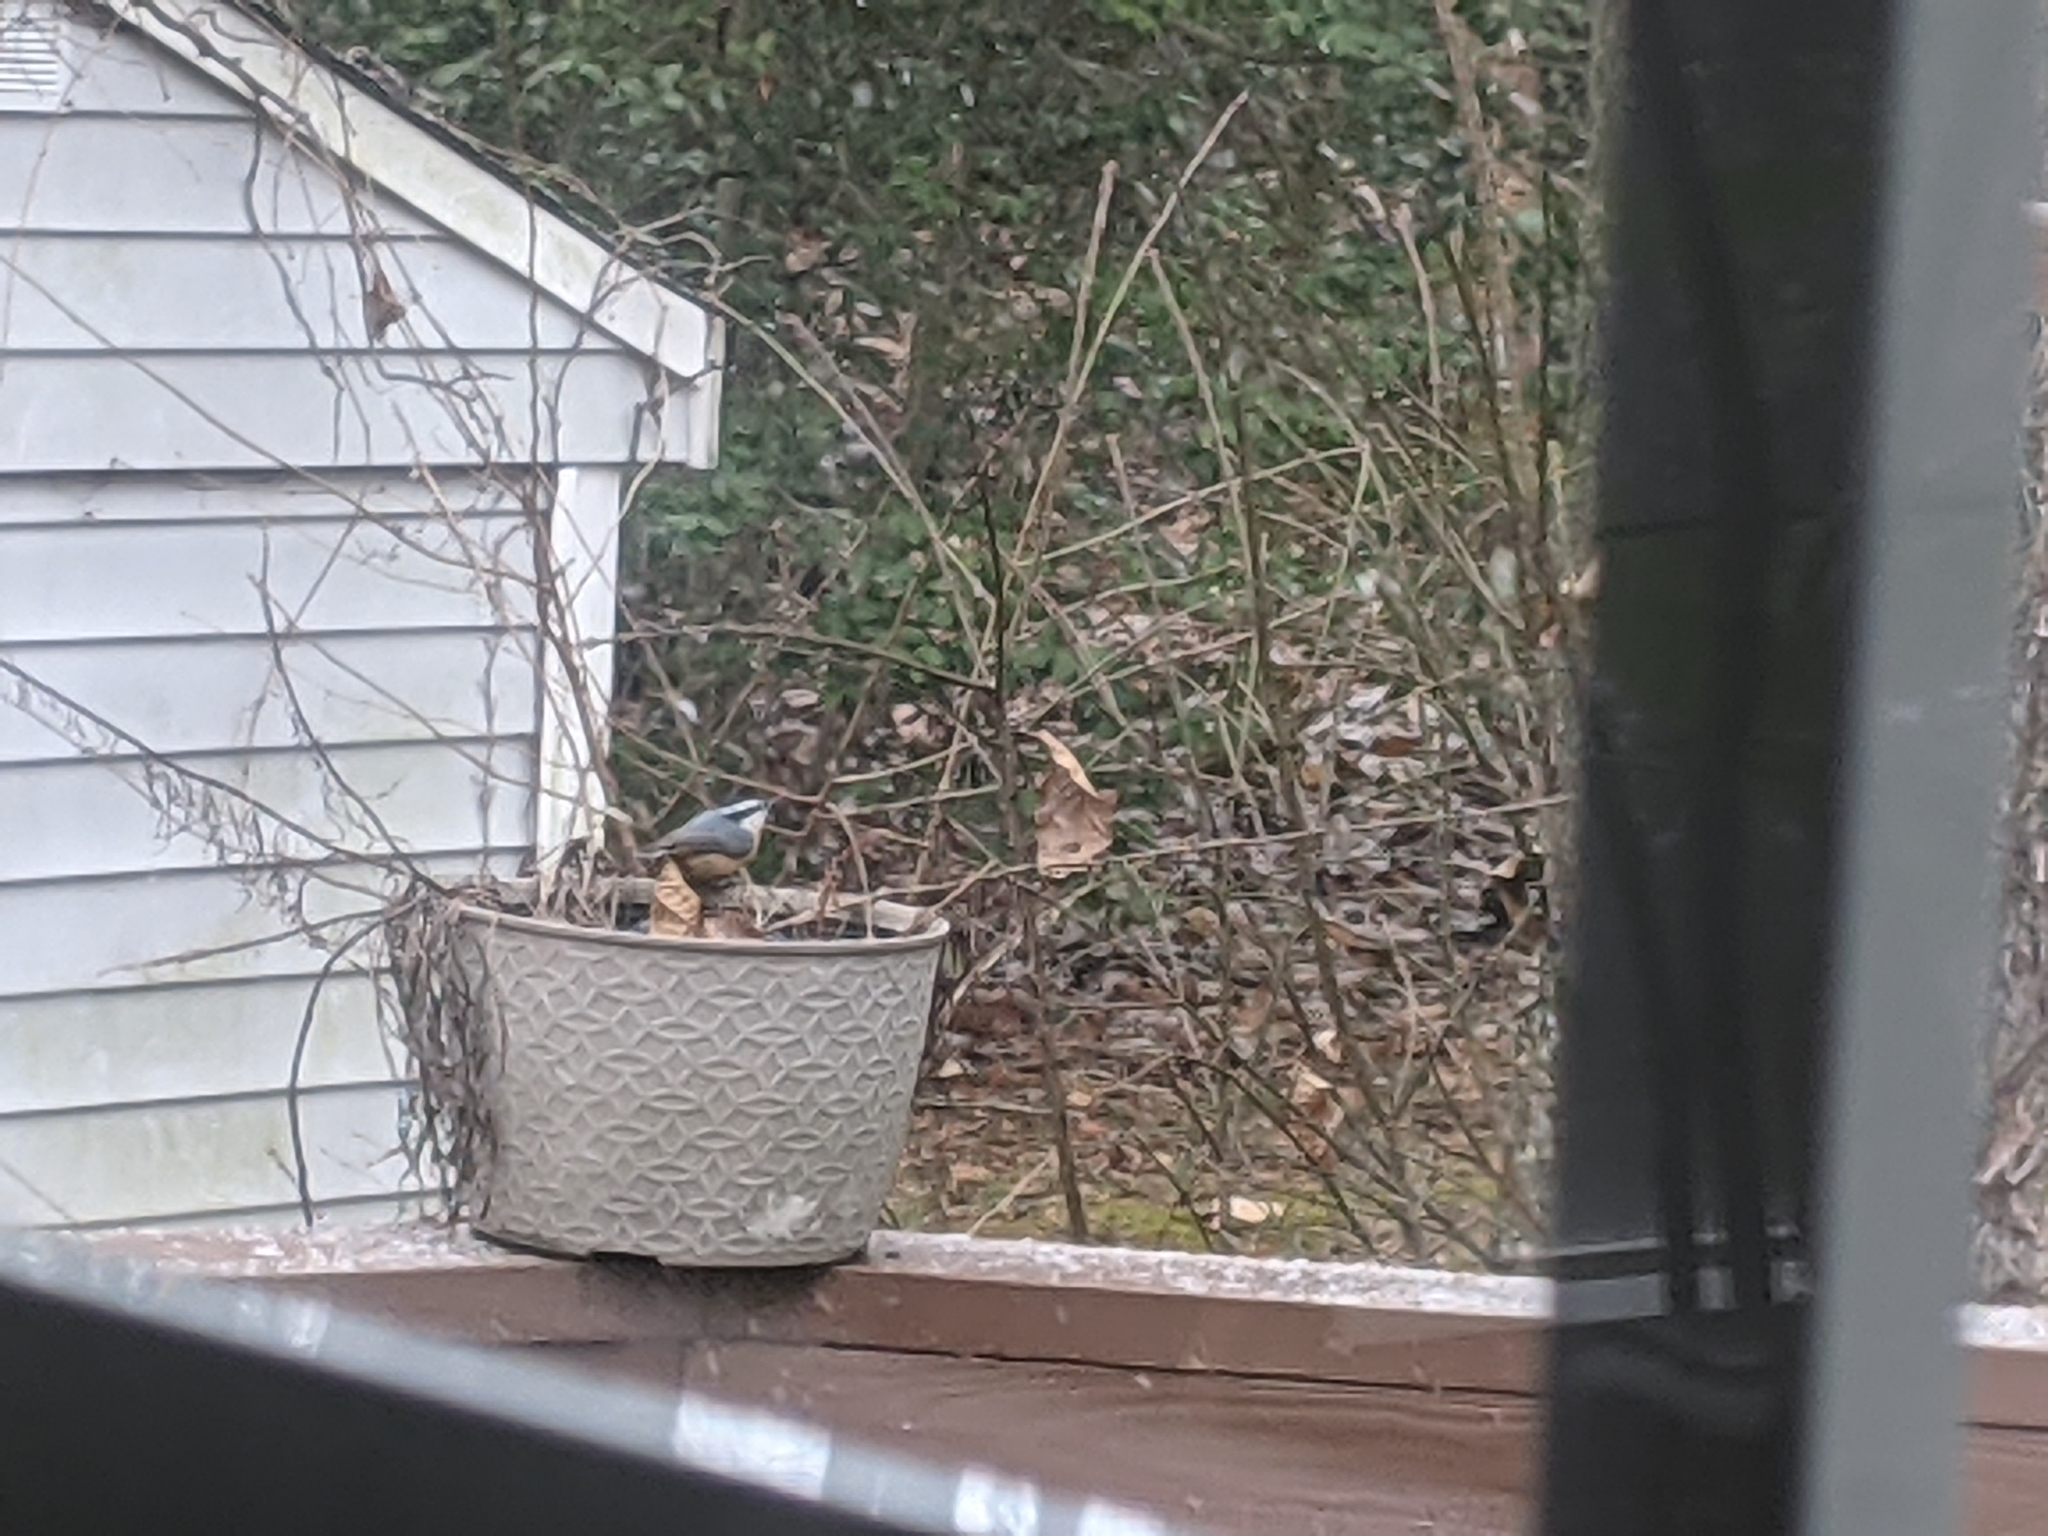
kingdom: Animalia
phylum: Chordata
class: Aves
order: Passeriformes
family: Sittidae
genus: Sitta
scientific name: Sitta canadensis
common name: Red-breasted nuthatch
